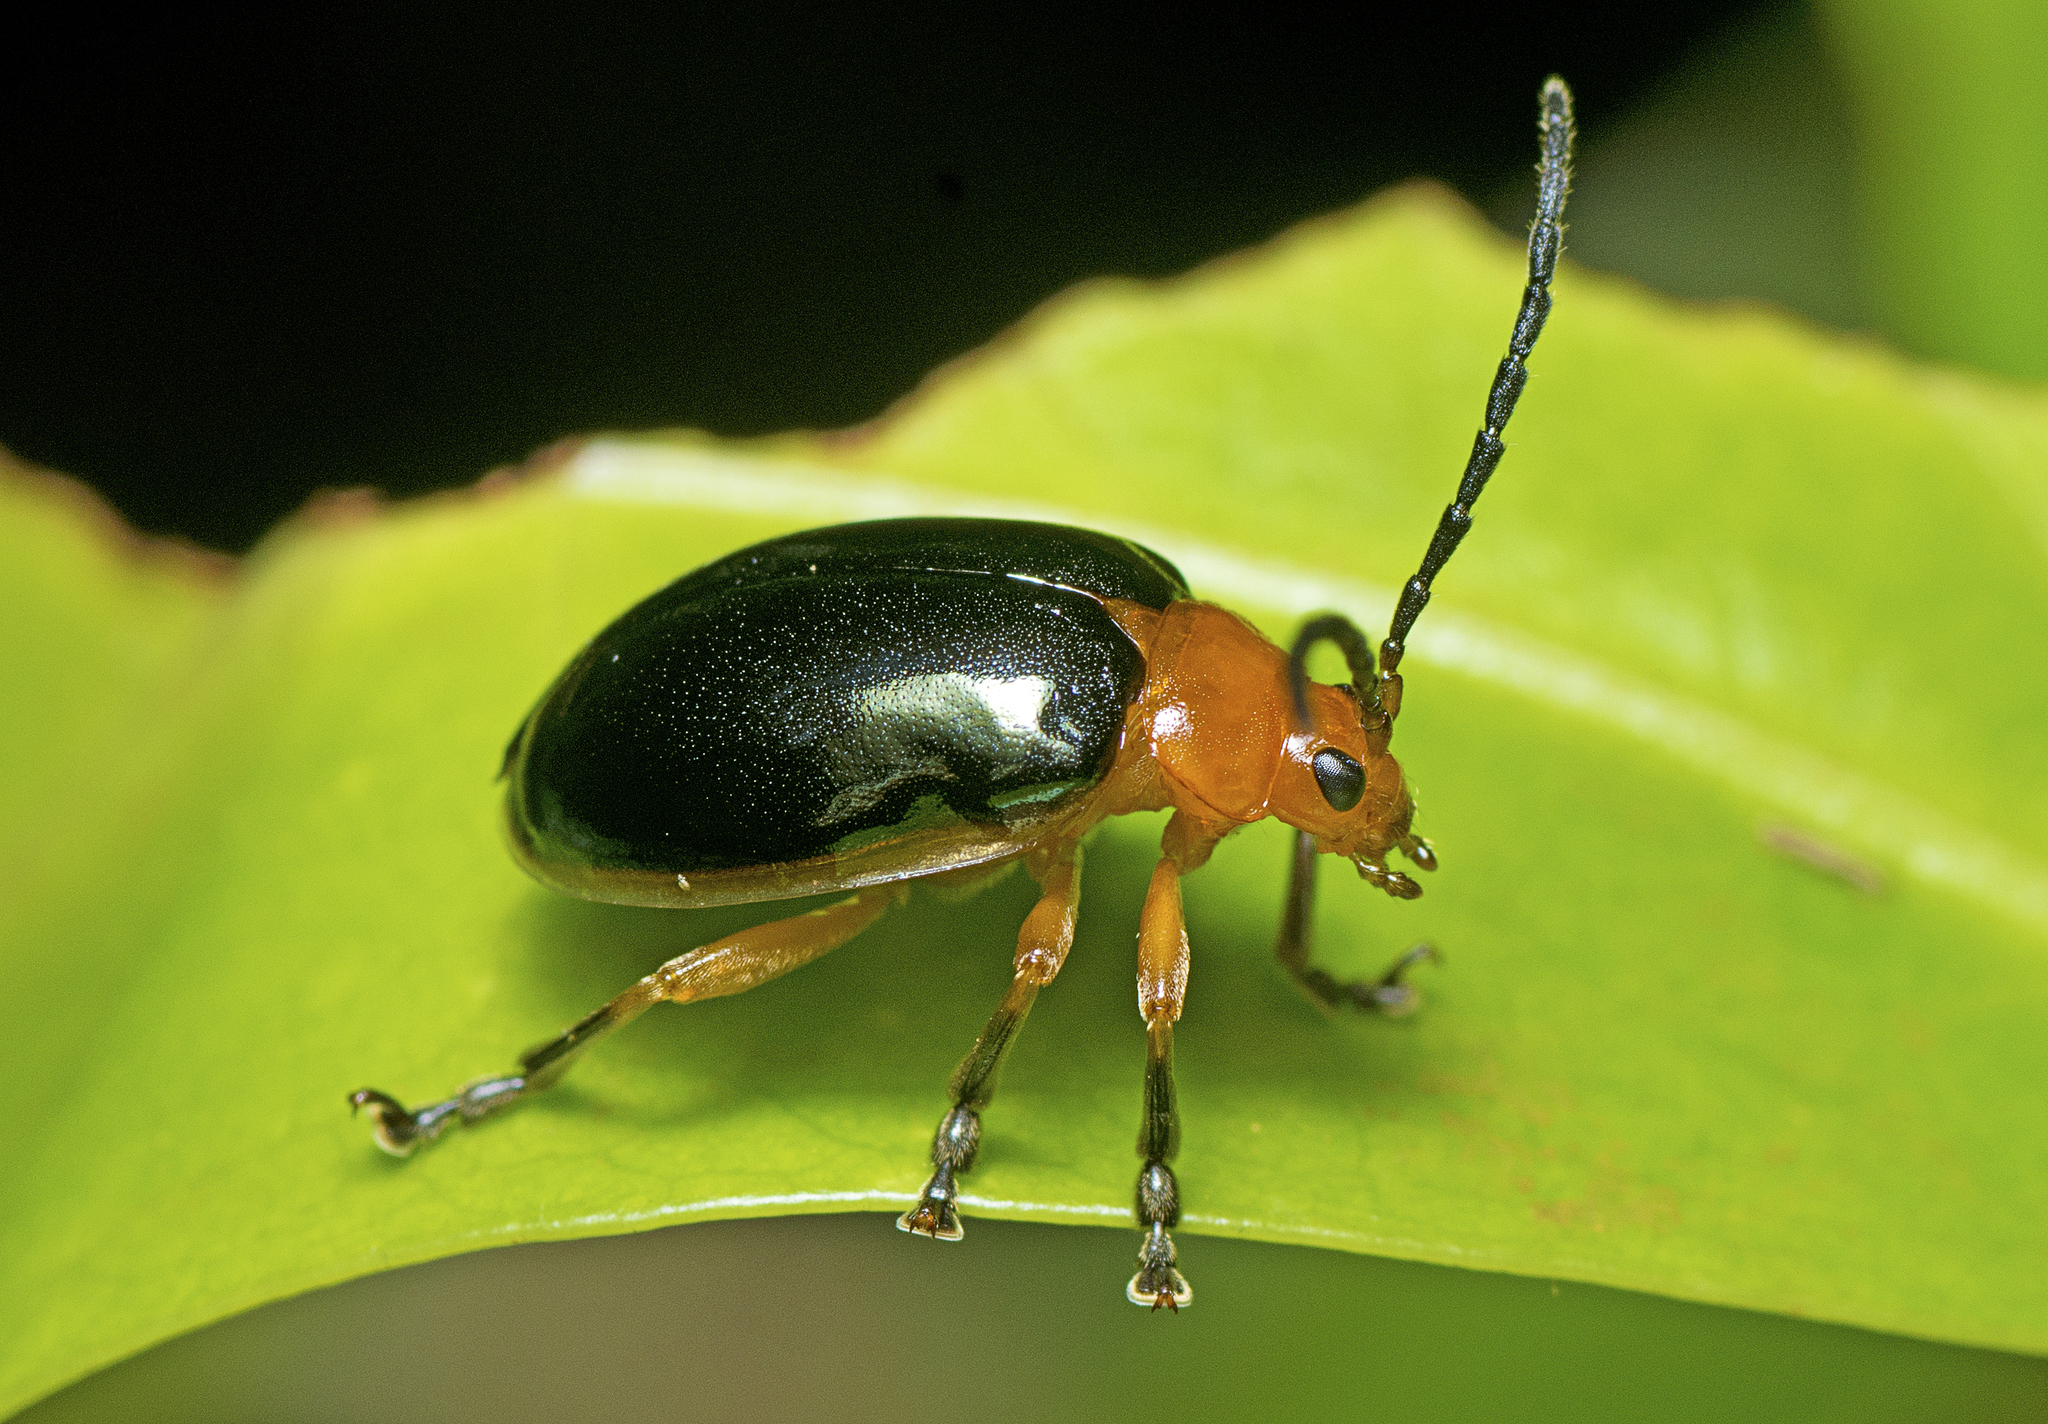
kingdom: Animalia
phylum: Arthropoda
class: Insecta
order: Coleoptera
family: Chrysomelidae
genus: Oides
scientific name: Oides
